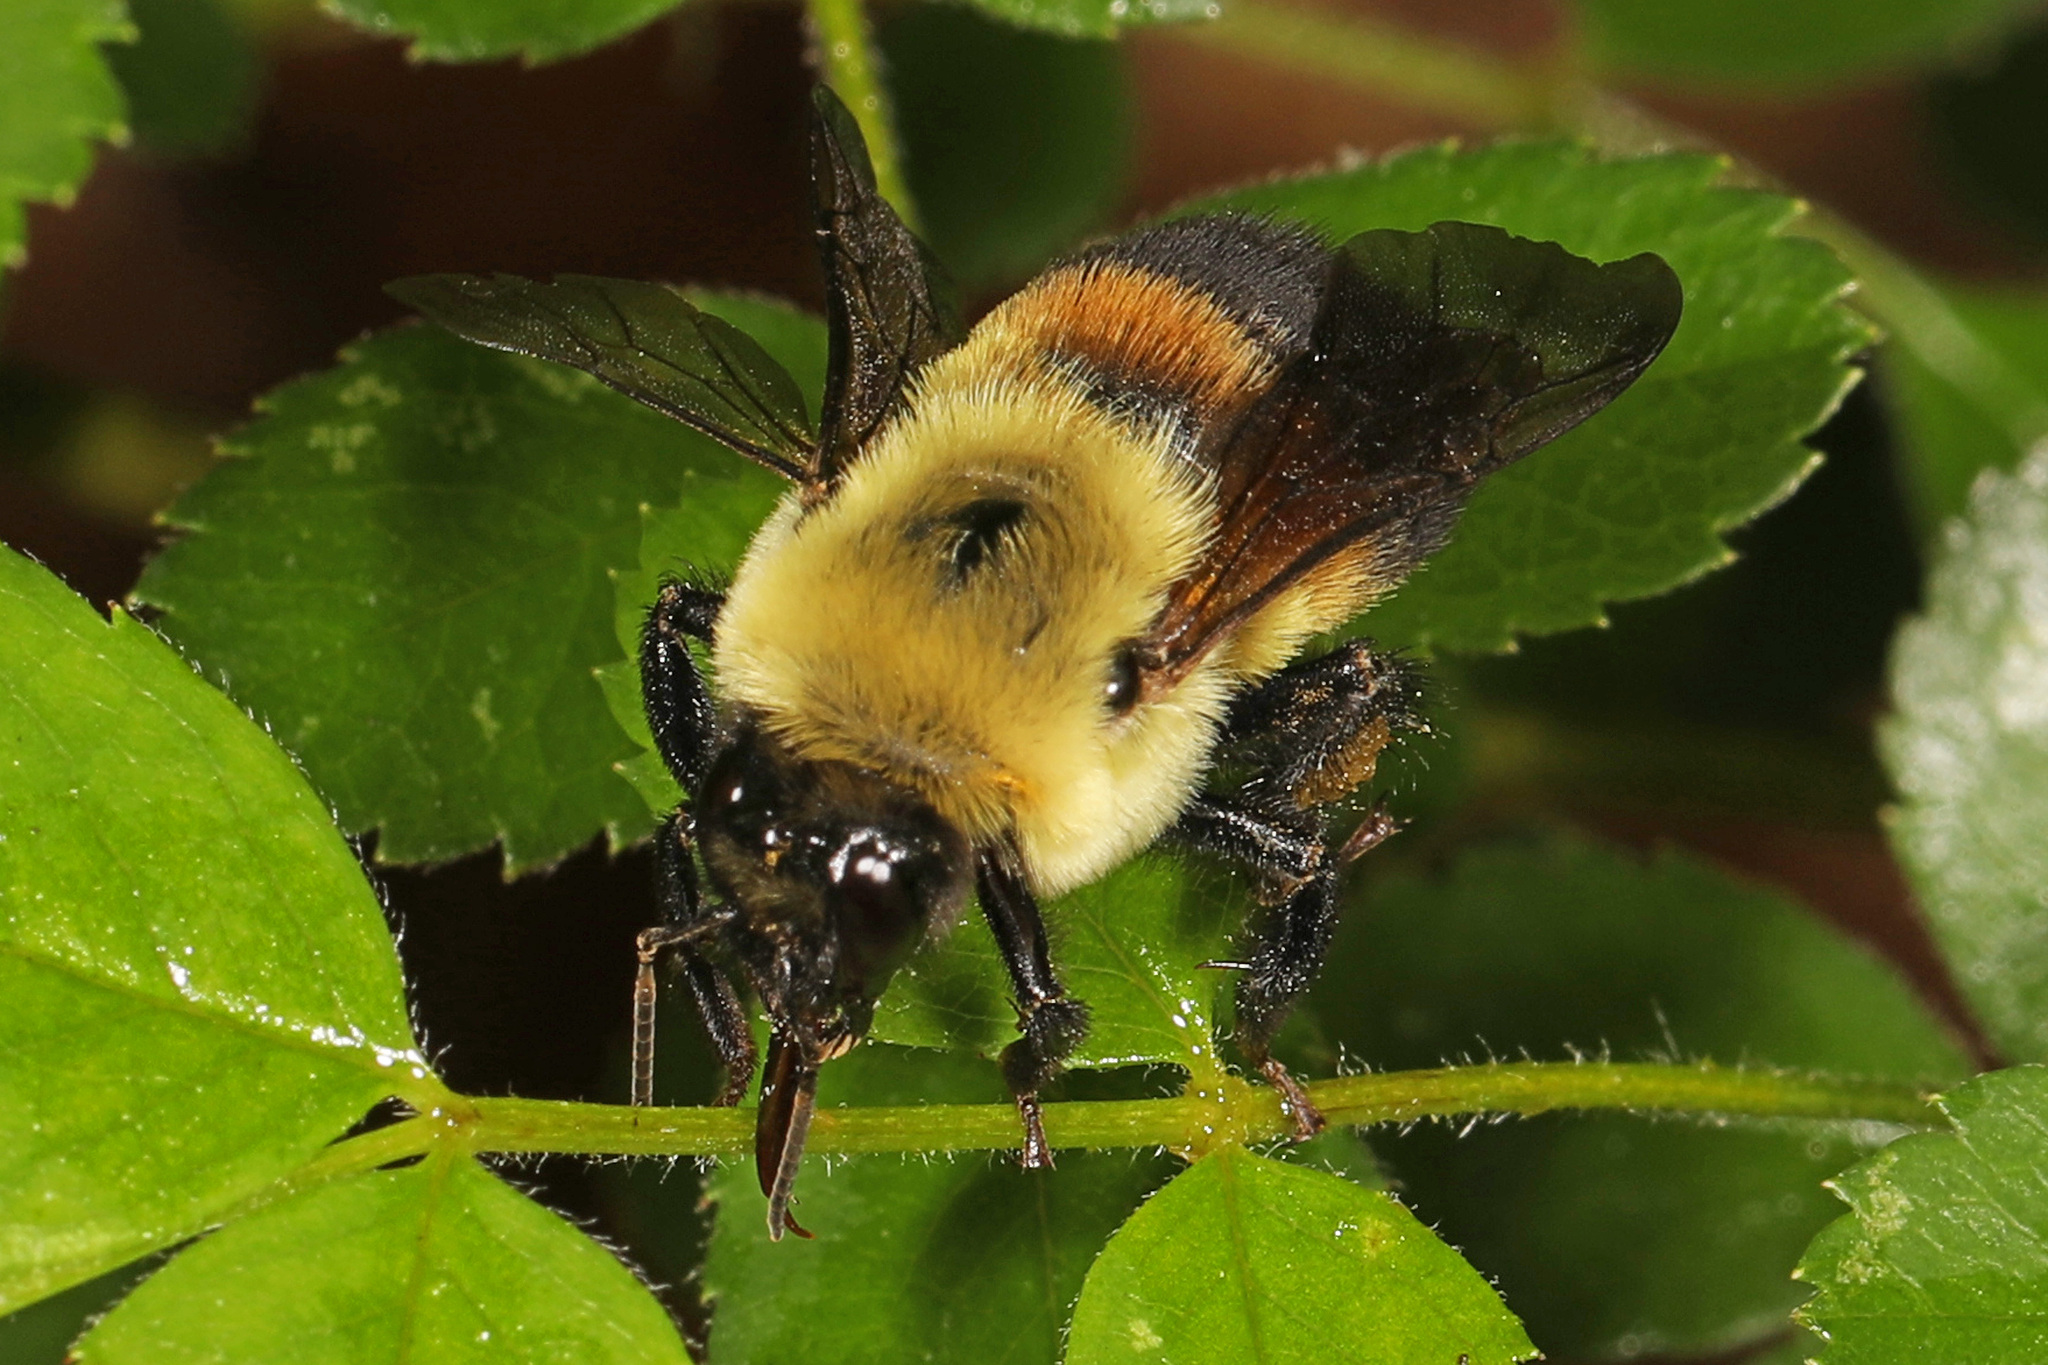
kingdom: Animalia
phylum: Arthropoda
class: Insecta
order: Hymenoptera
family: Apidae
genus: Bombus
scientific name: Bombus griseocollis
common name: Brown-belted bumble bee
